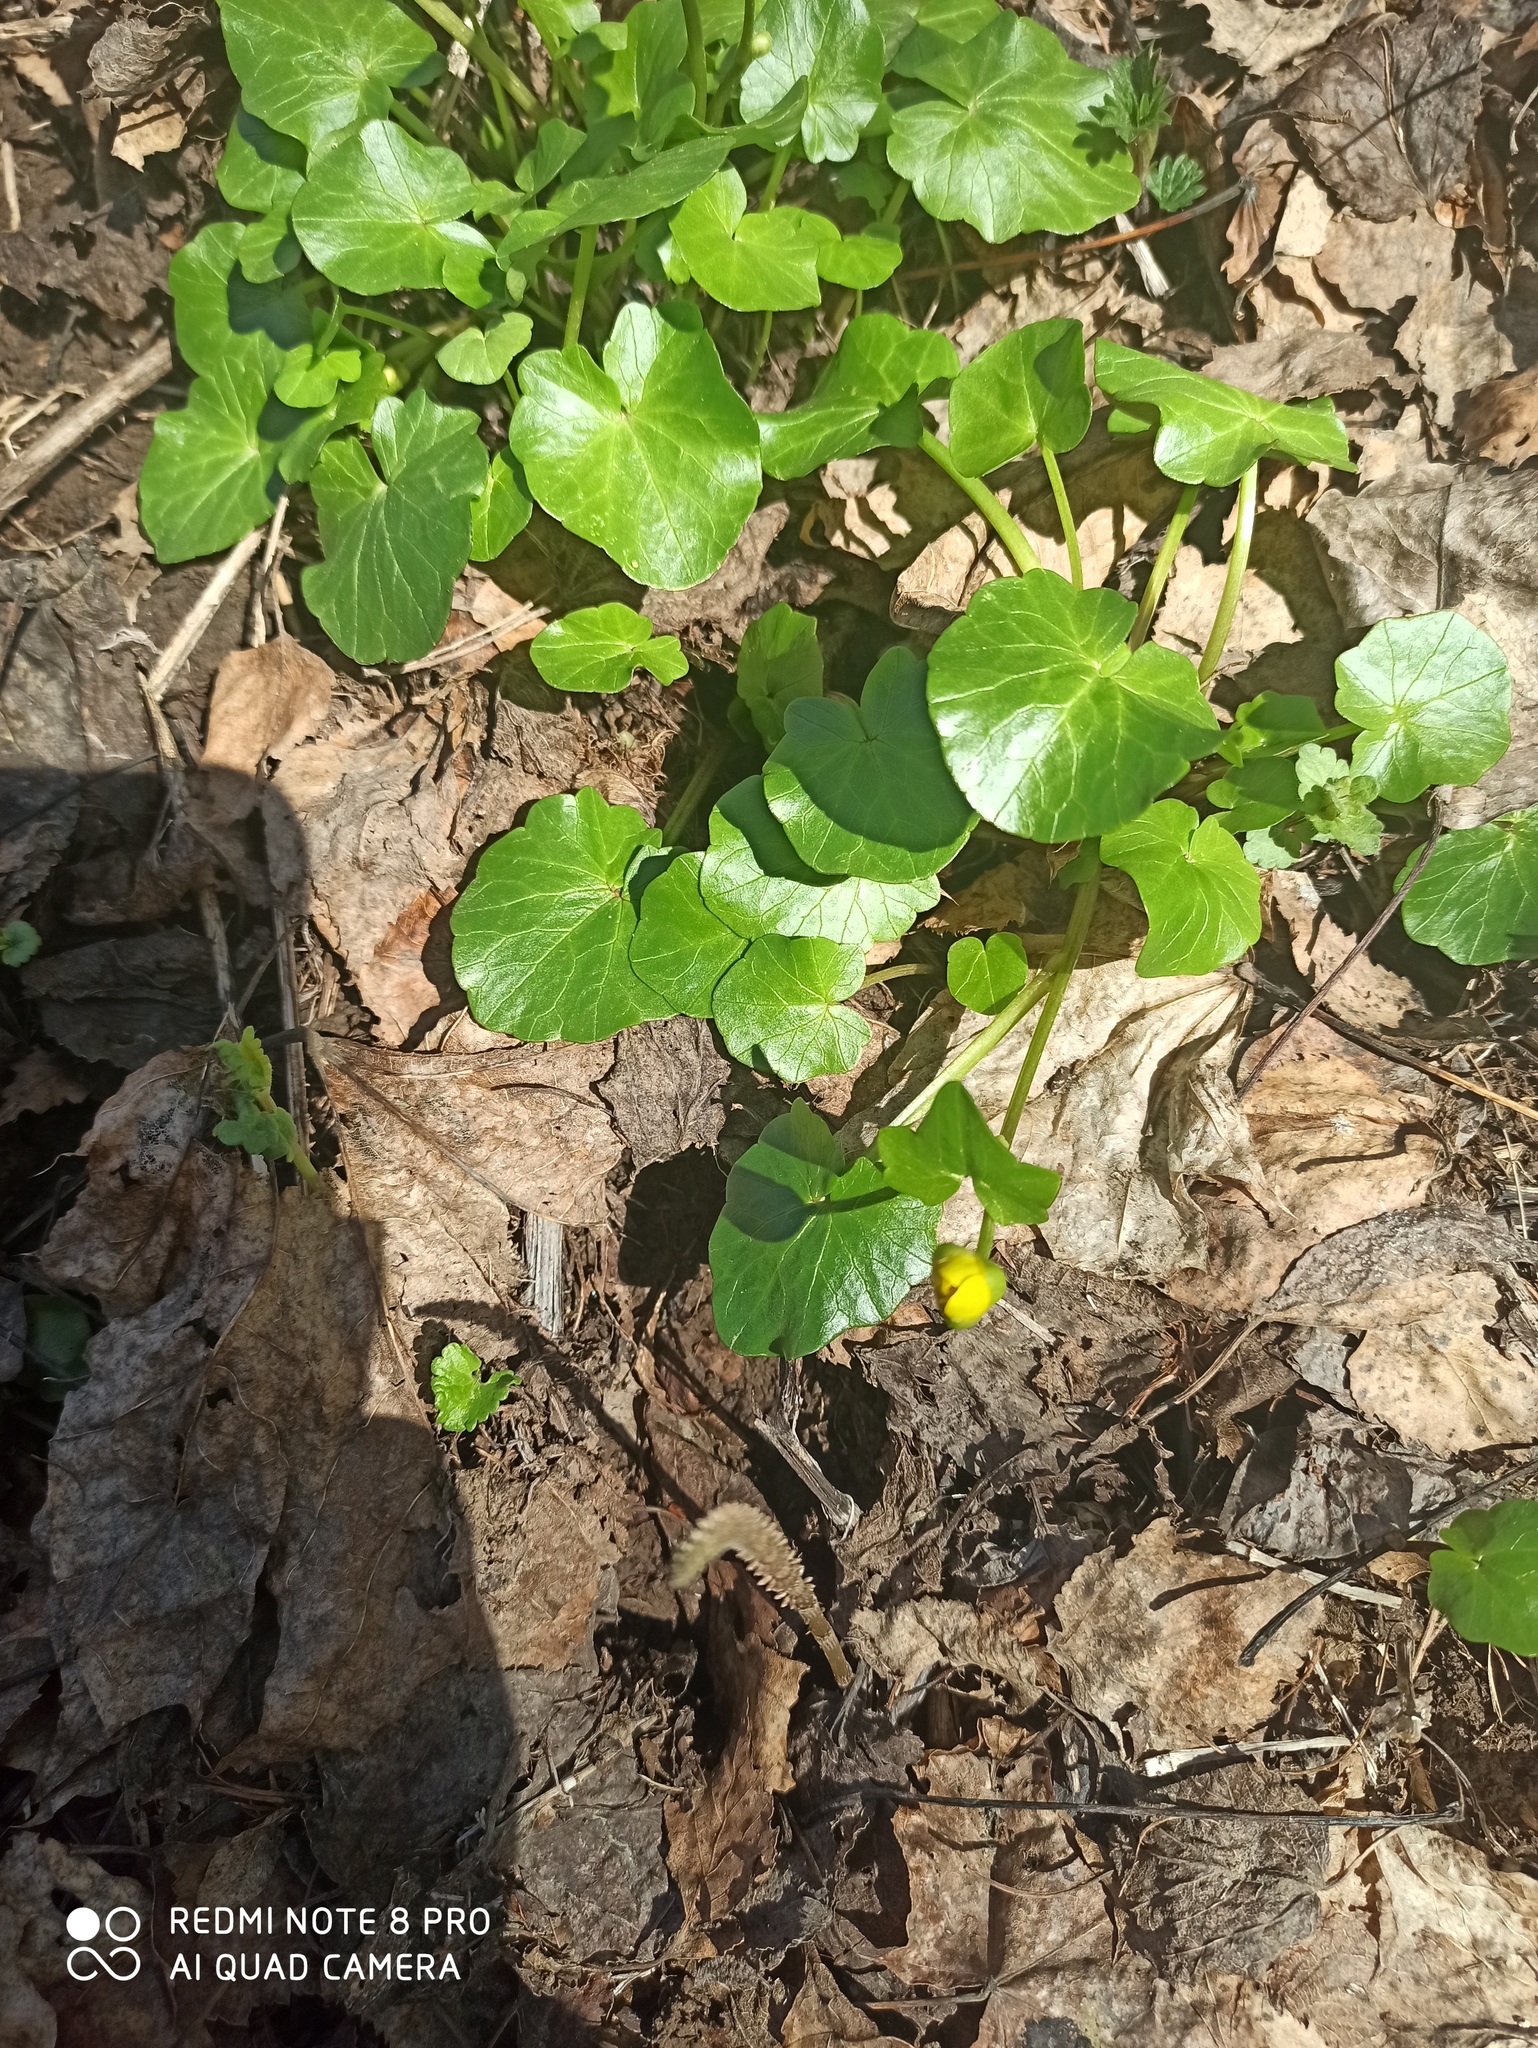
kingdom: Plantae
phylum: Tracheophyta
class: Magnoliopsida
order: Ranunculales
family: Ranunculaceae
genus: Ficaria
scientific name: Ficaria verna
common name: Lesser celandine
